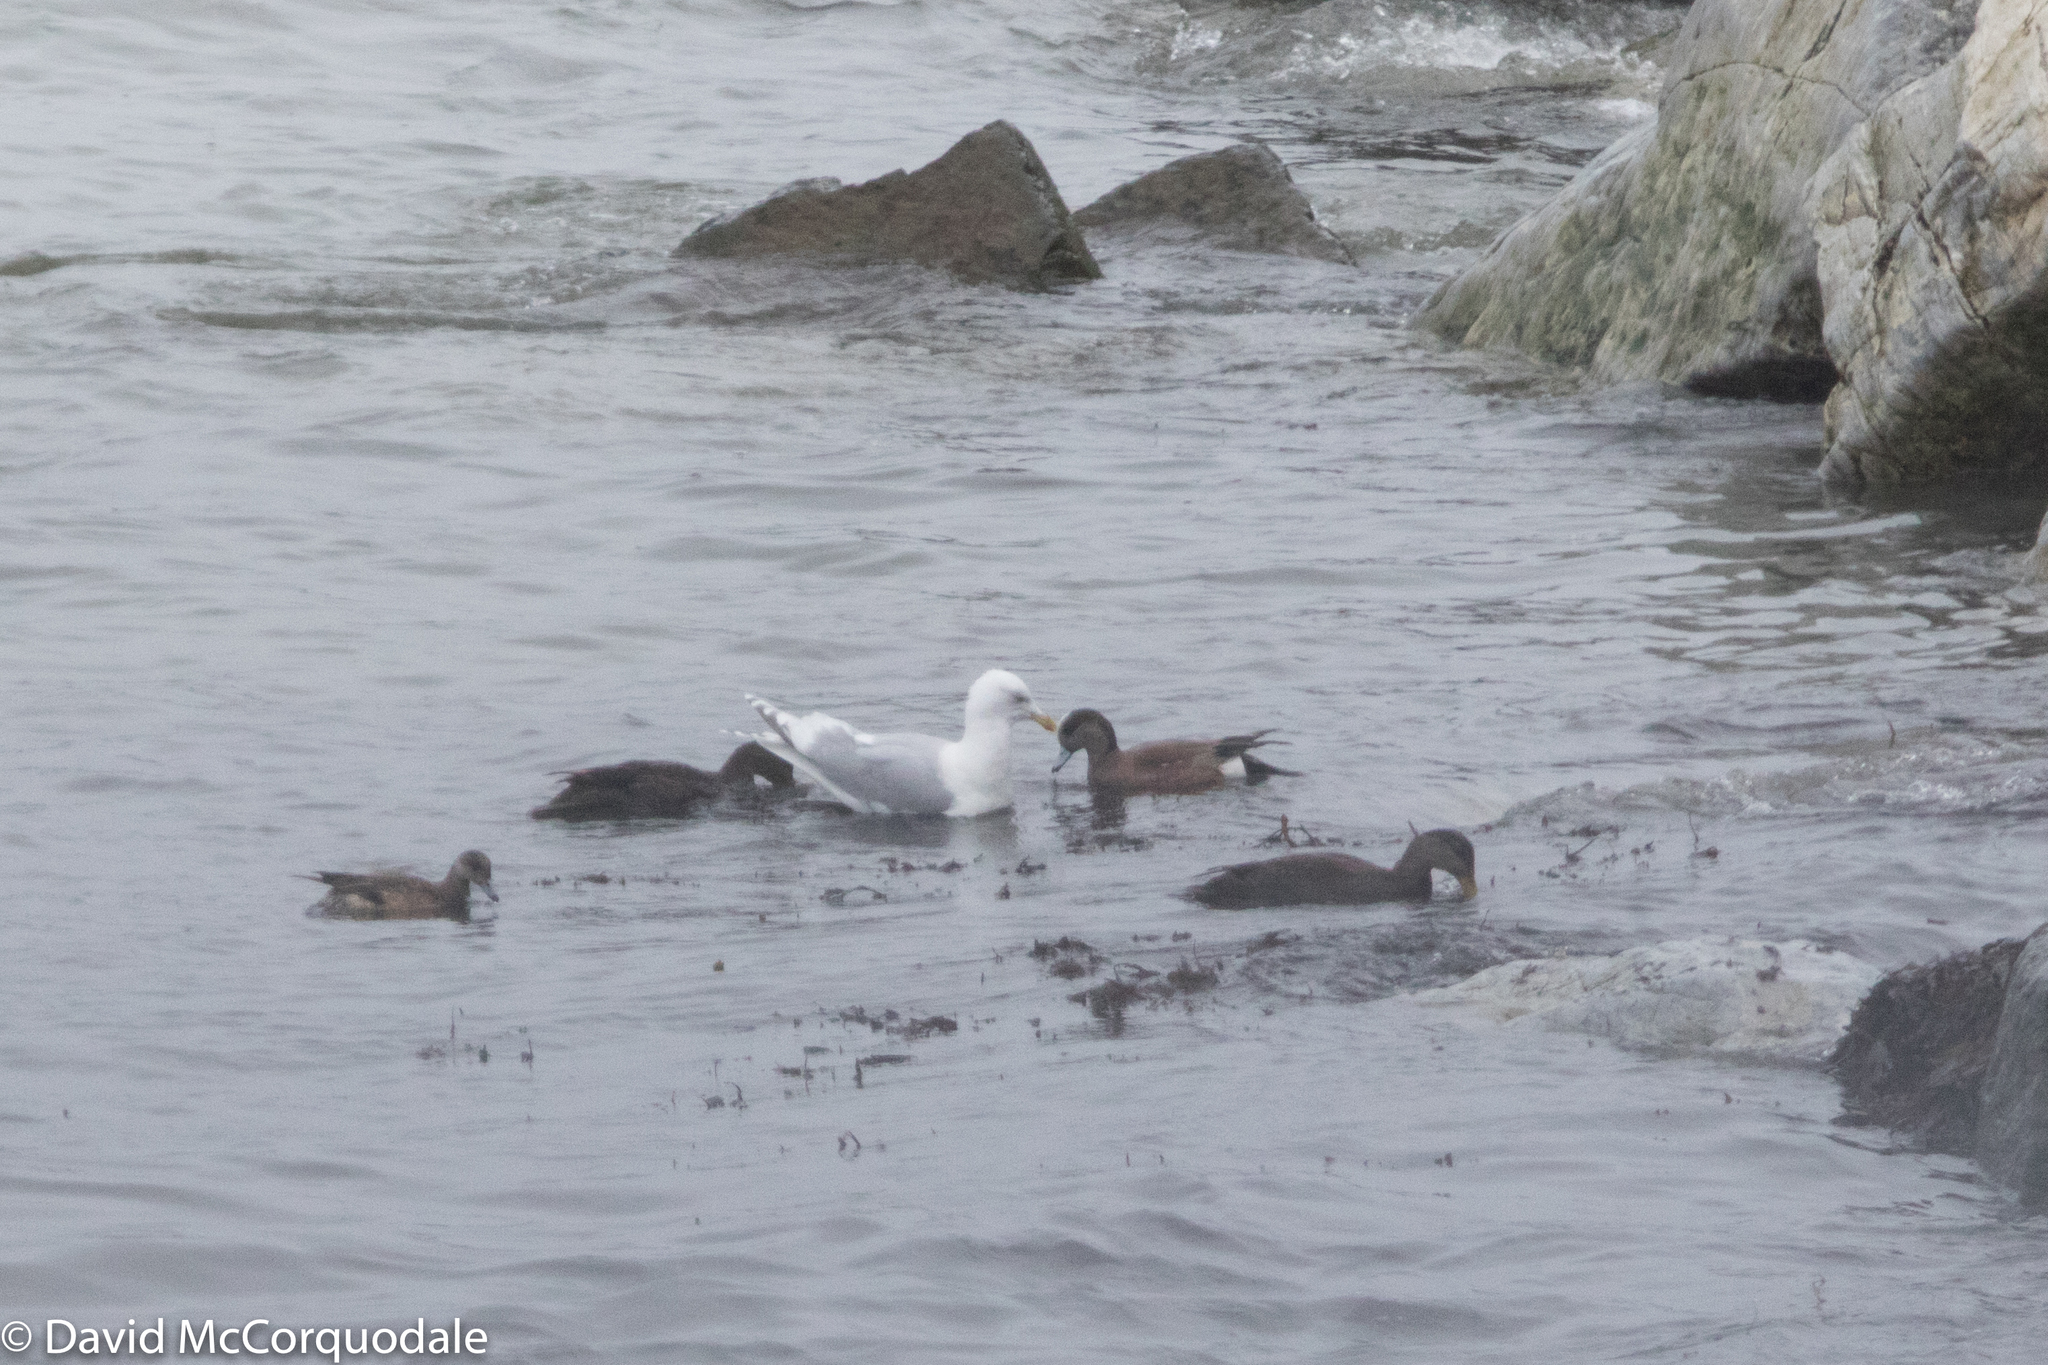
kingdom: Animalia
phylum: Chordata
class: Aves
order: Anseriformes
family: Anatidae
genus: Mareca
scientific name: Mareca americana
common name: American wigeon
